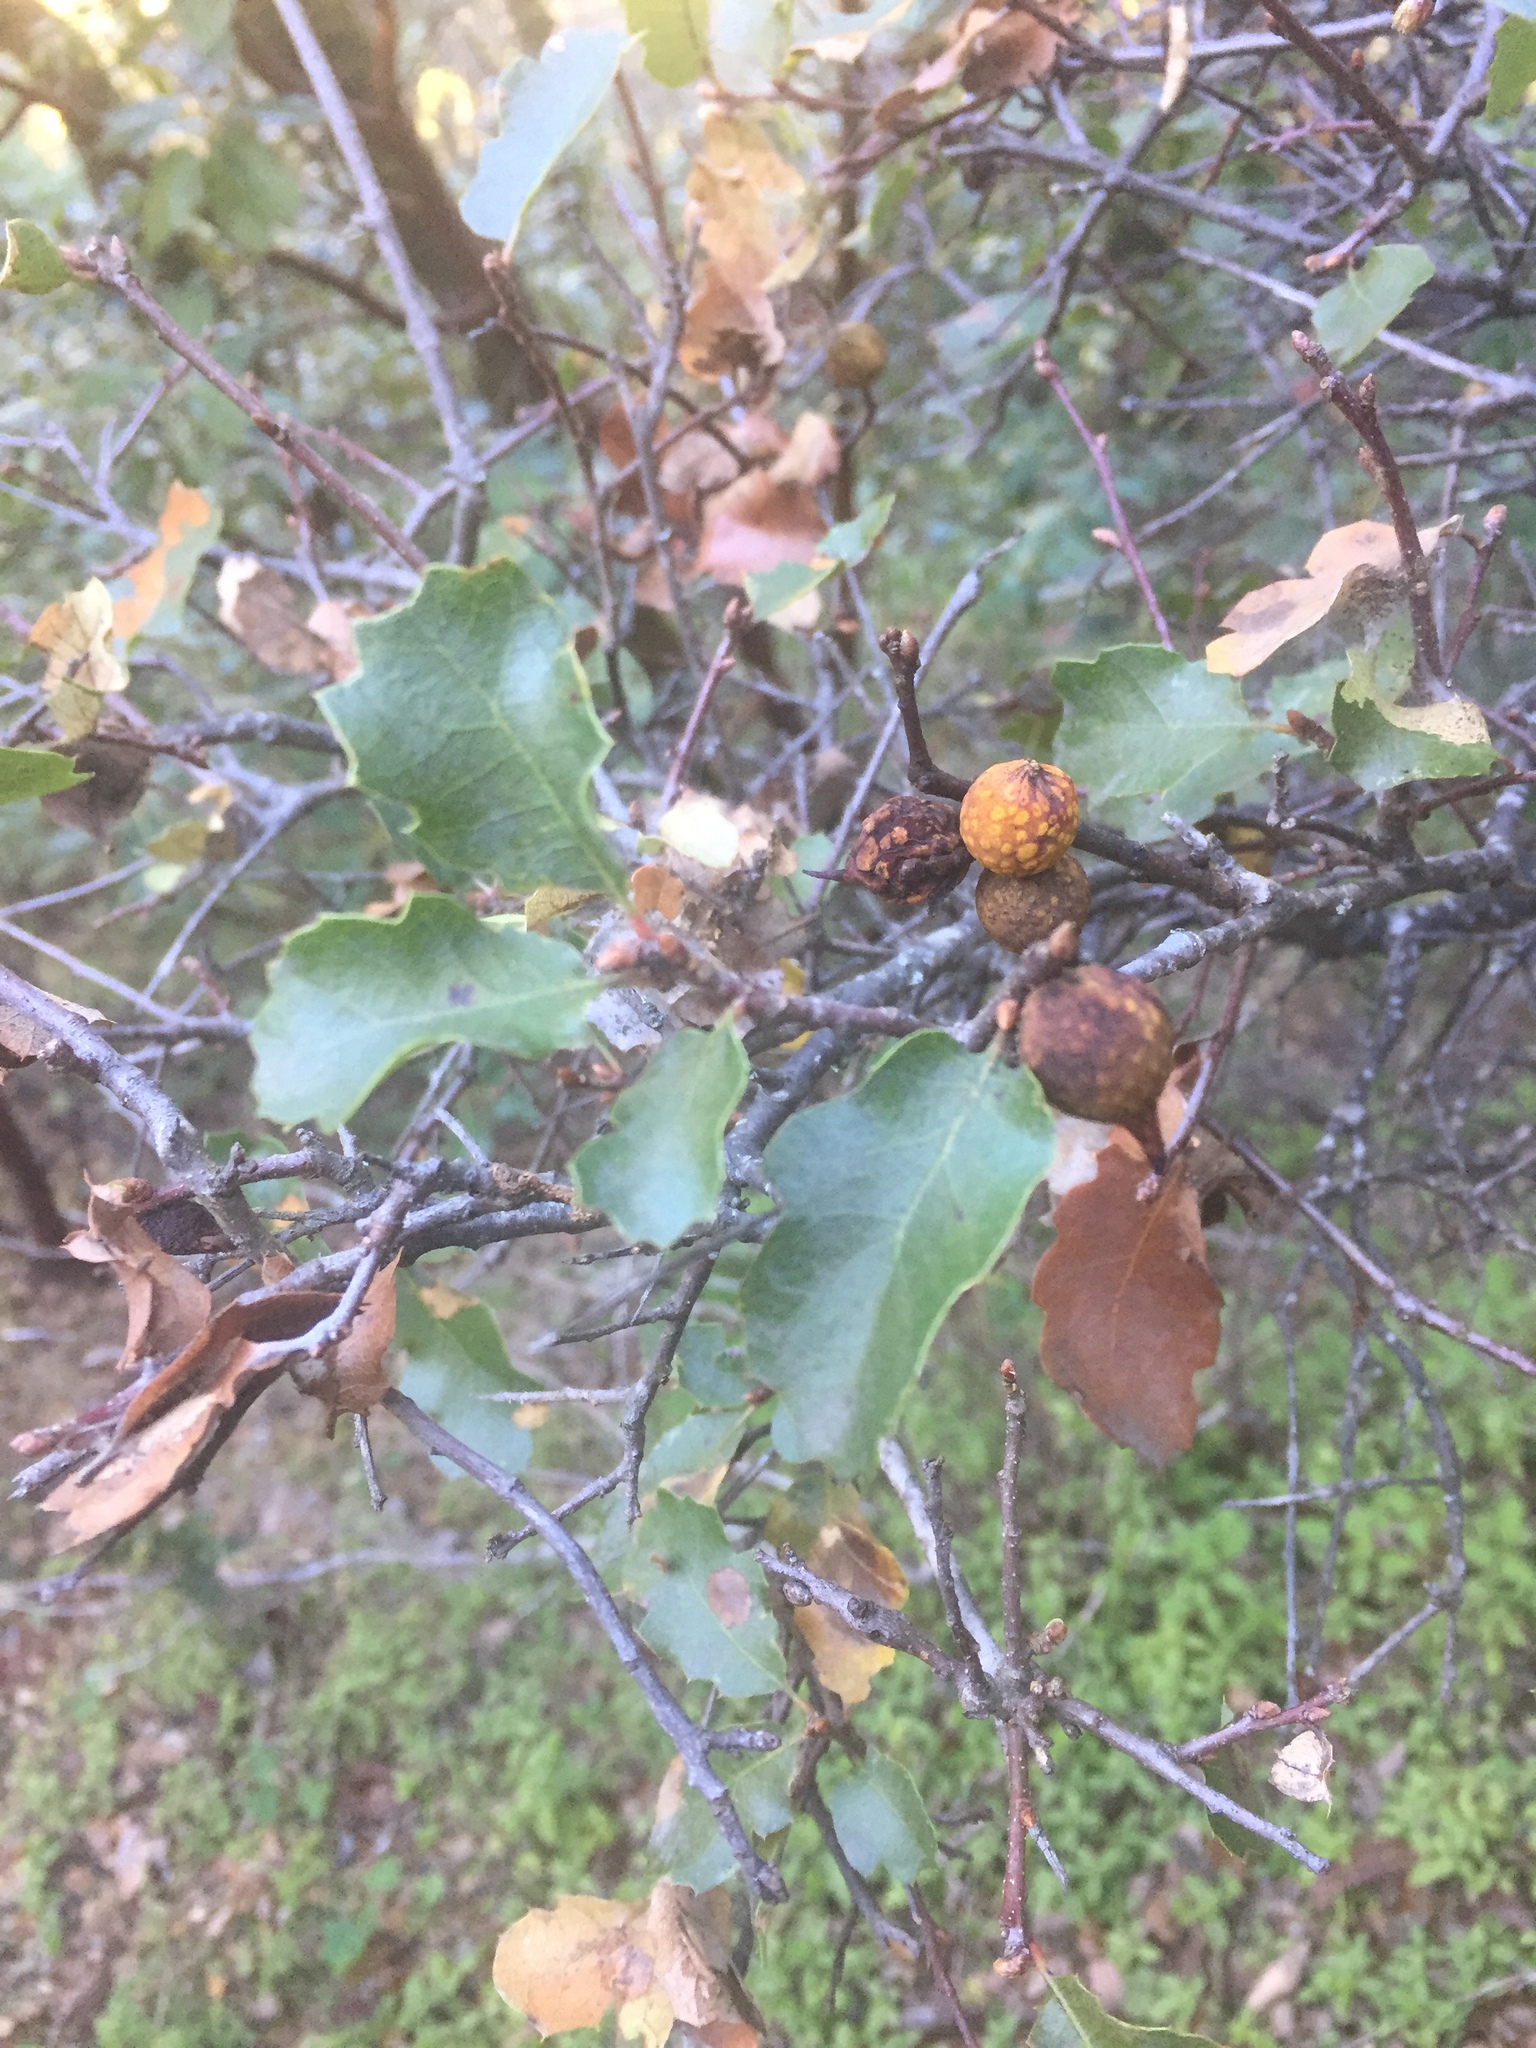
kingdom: Animalia
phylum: Arthropoda
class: Insecta
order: Hymenoptera
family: Cynipidae
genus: Burnettweldia
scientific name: Burnettweldia
